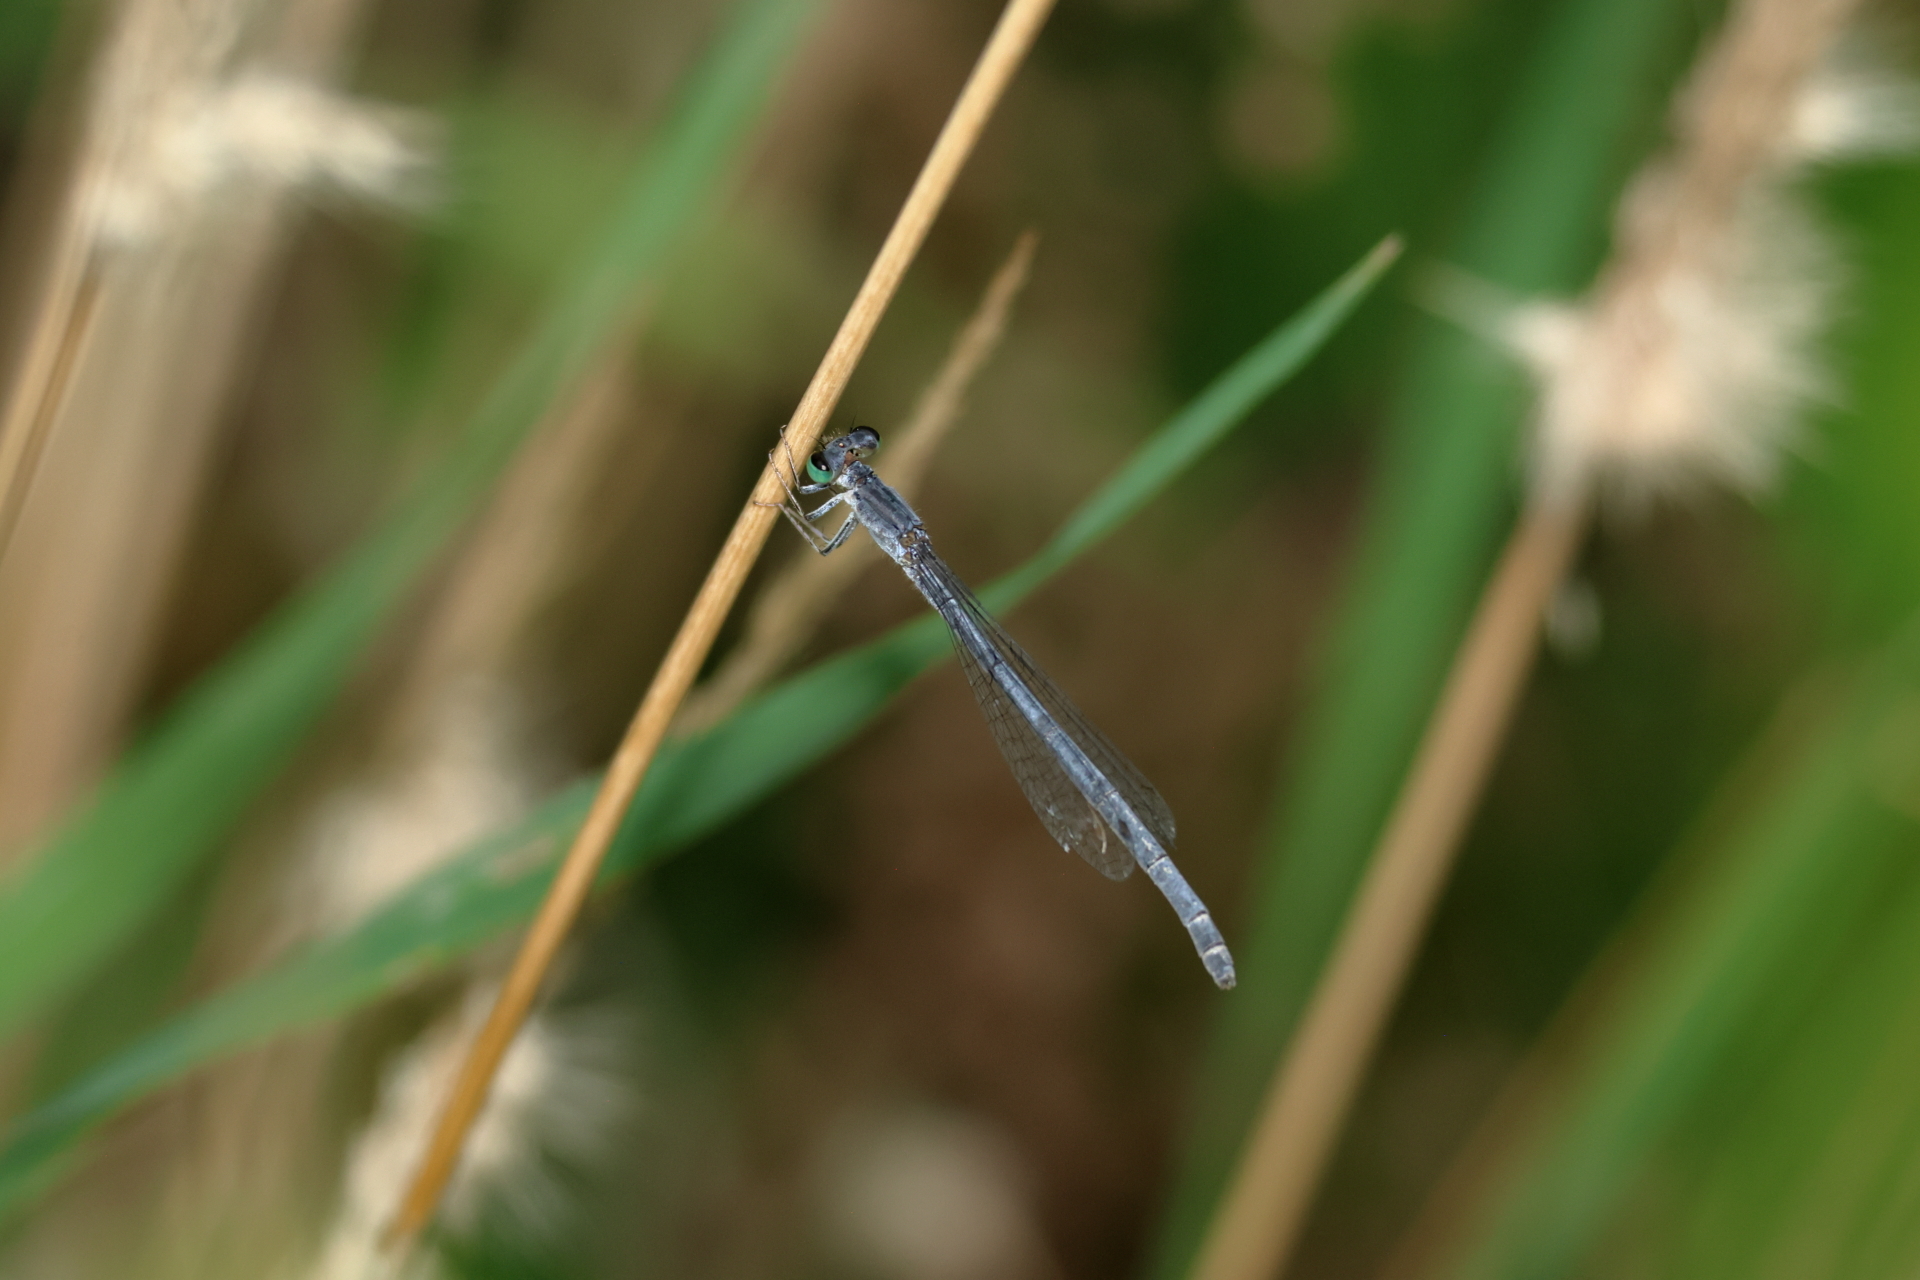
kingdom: Animalia
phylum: Arthropoda
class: Insecta
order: Odonata
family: Coenagrionidae
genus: Ischnura
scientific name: Ischnura demorsa
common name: Mexican forktail
